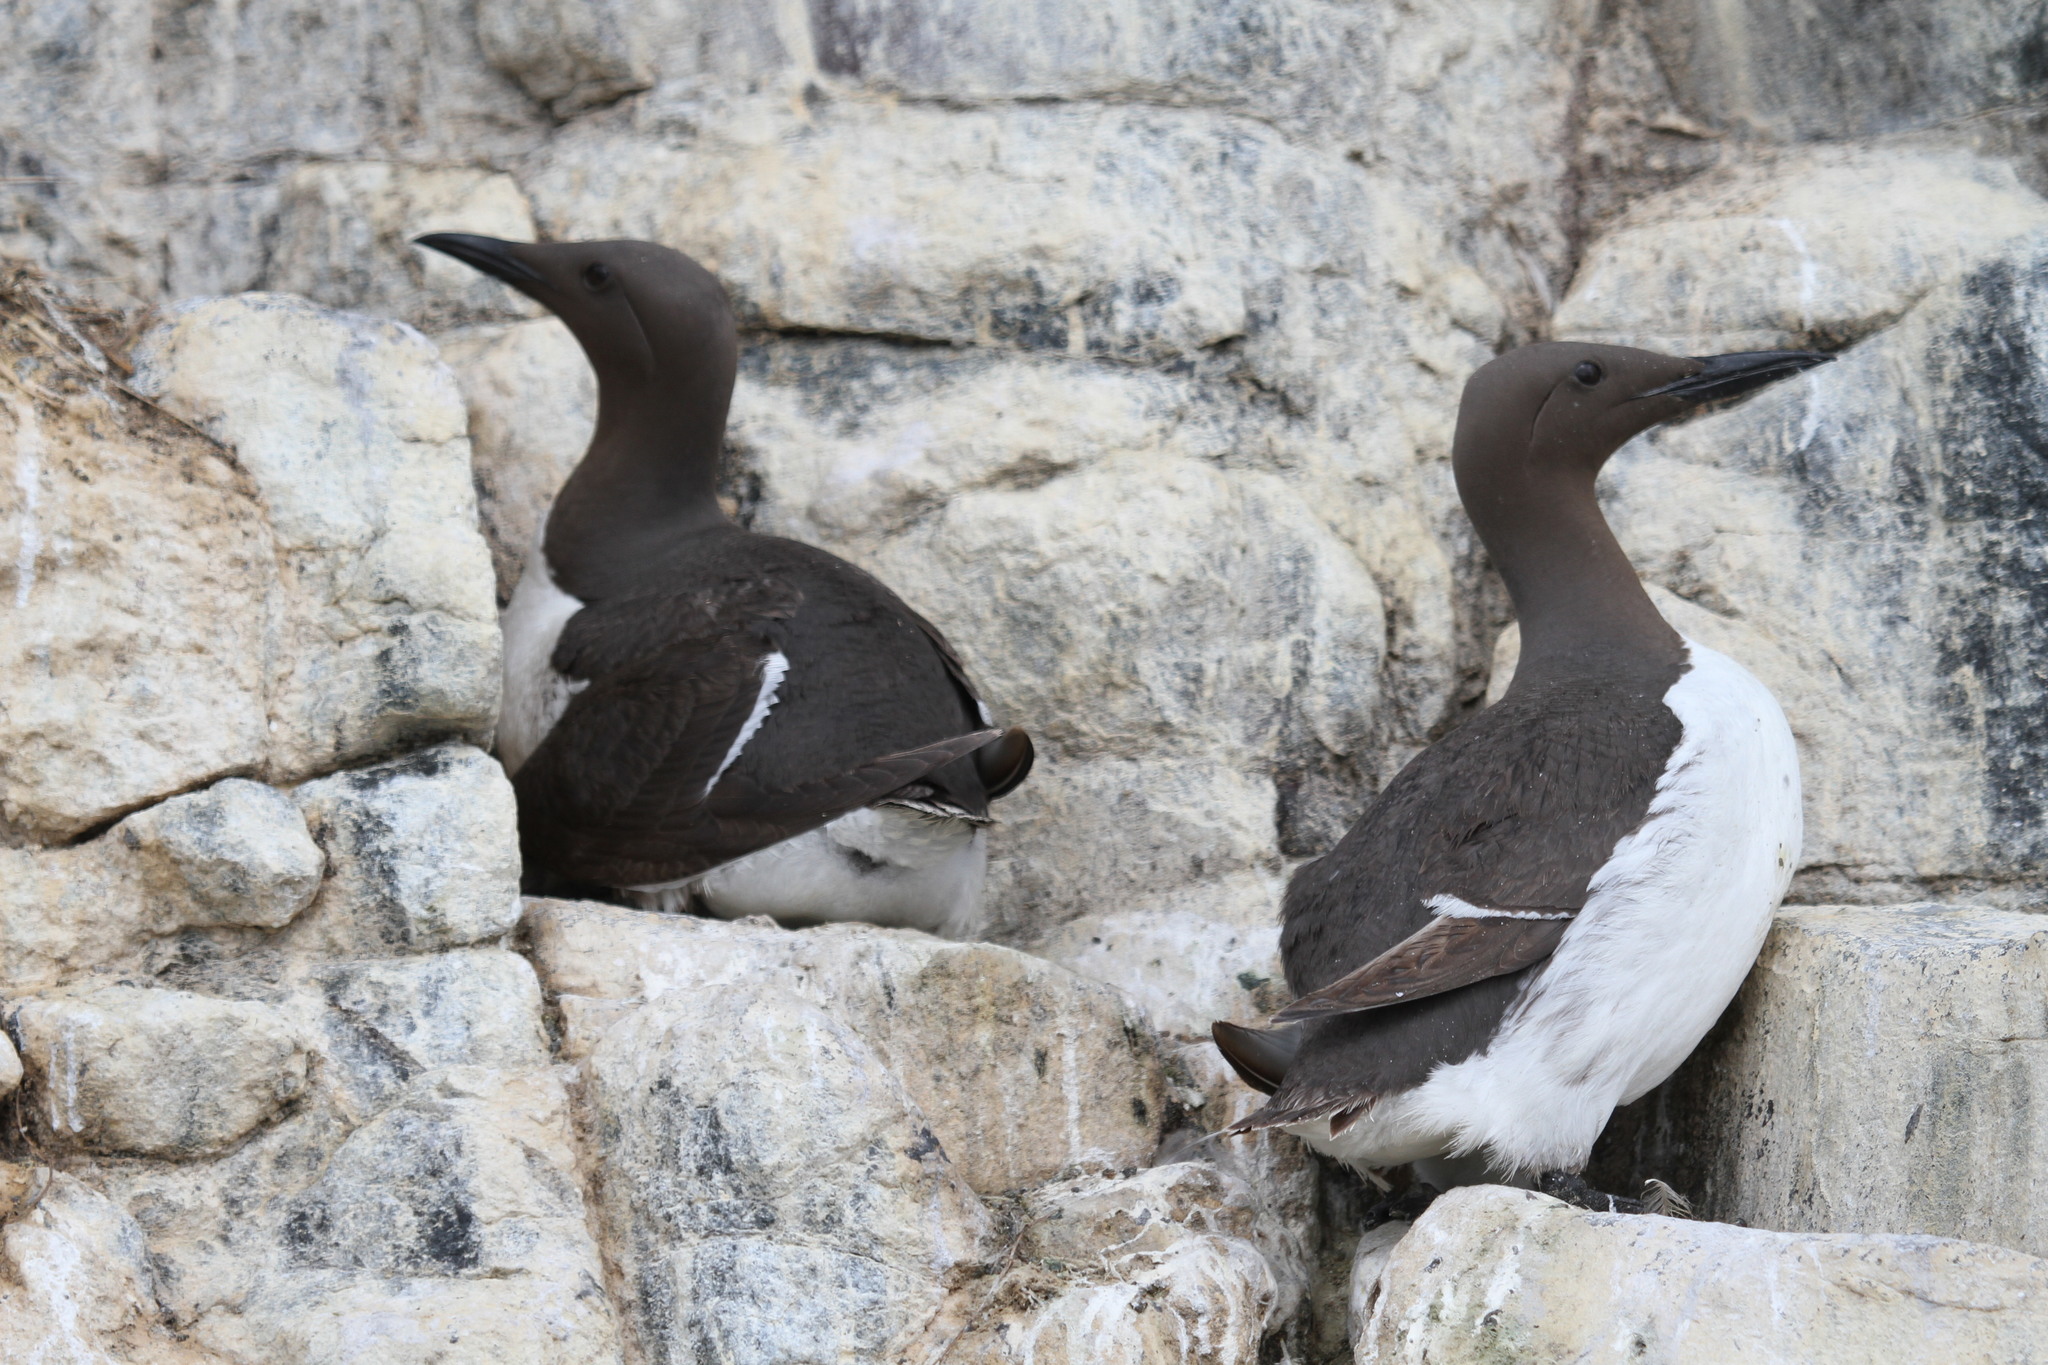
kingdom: Animalia
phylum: Chordata
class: Aves
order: Charadriiformes
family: Alcidae
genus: Uria
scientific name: Uria aalge
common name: Common murre
